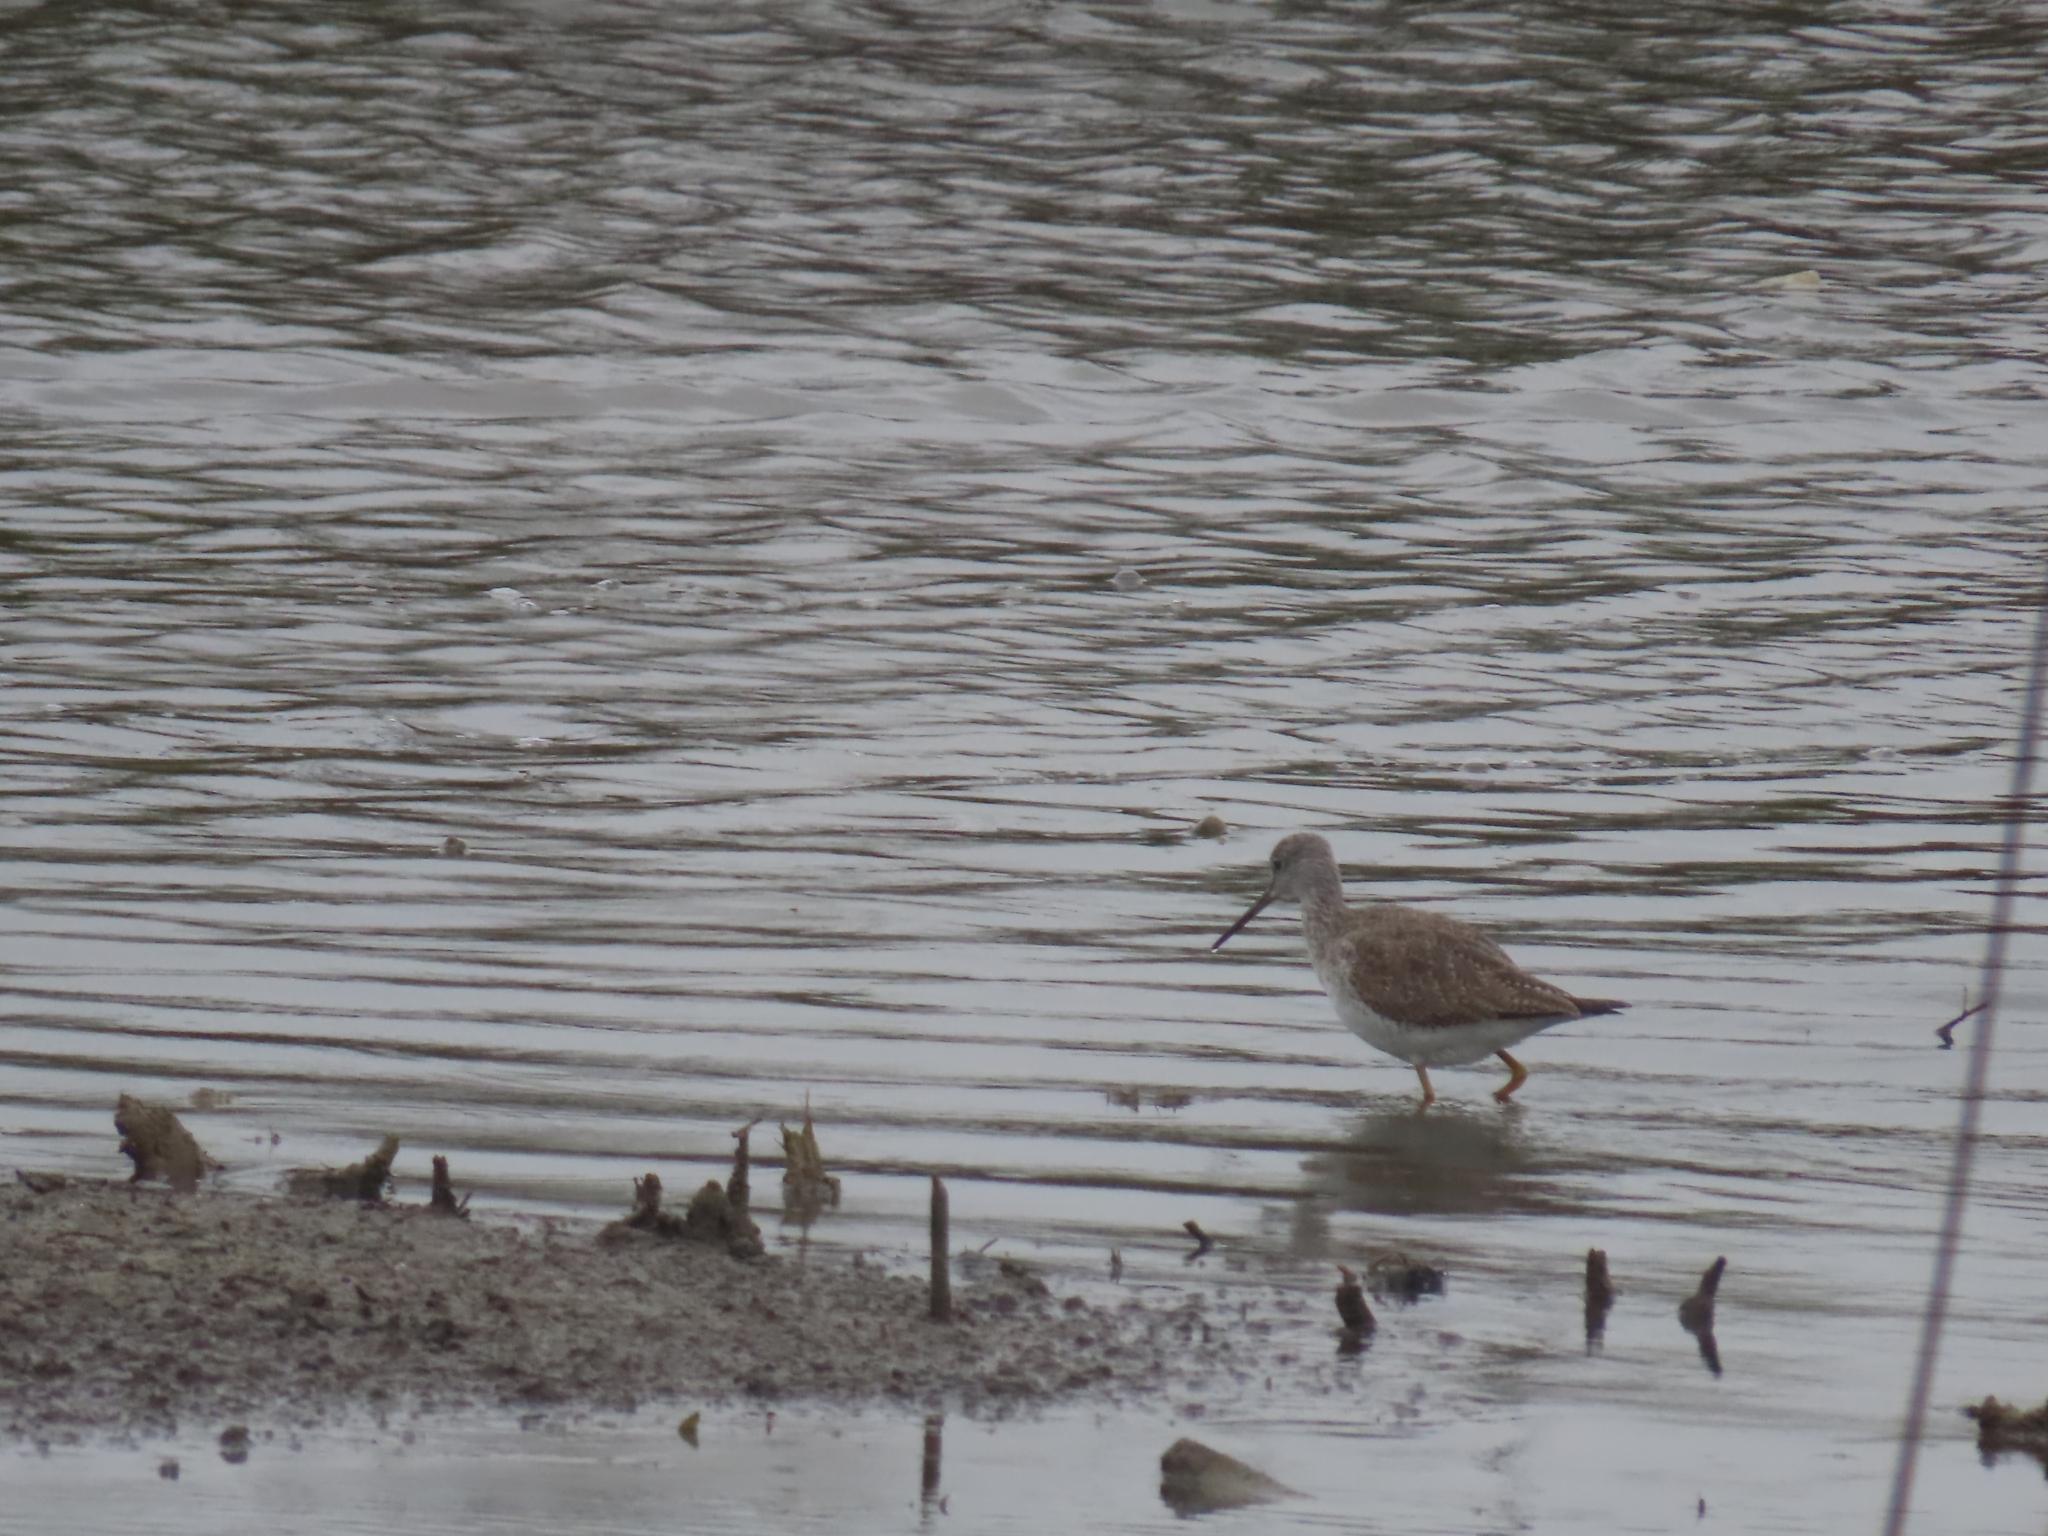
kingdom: Animalia
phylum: Chordata
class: Aves
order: Charadriiformes
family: Scolopacidae
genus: Tringa
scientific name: Tringa melanoleuca
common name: Greater yellowlegs
